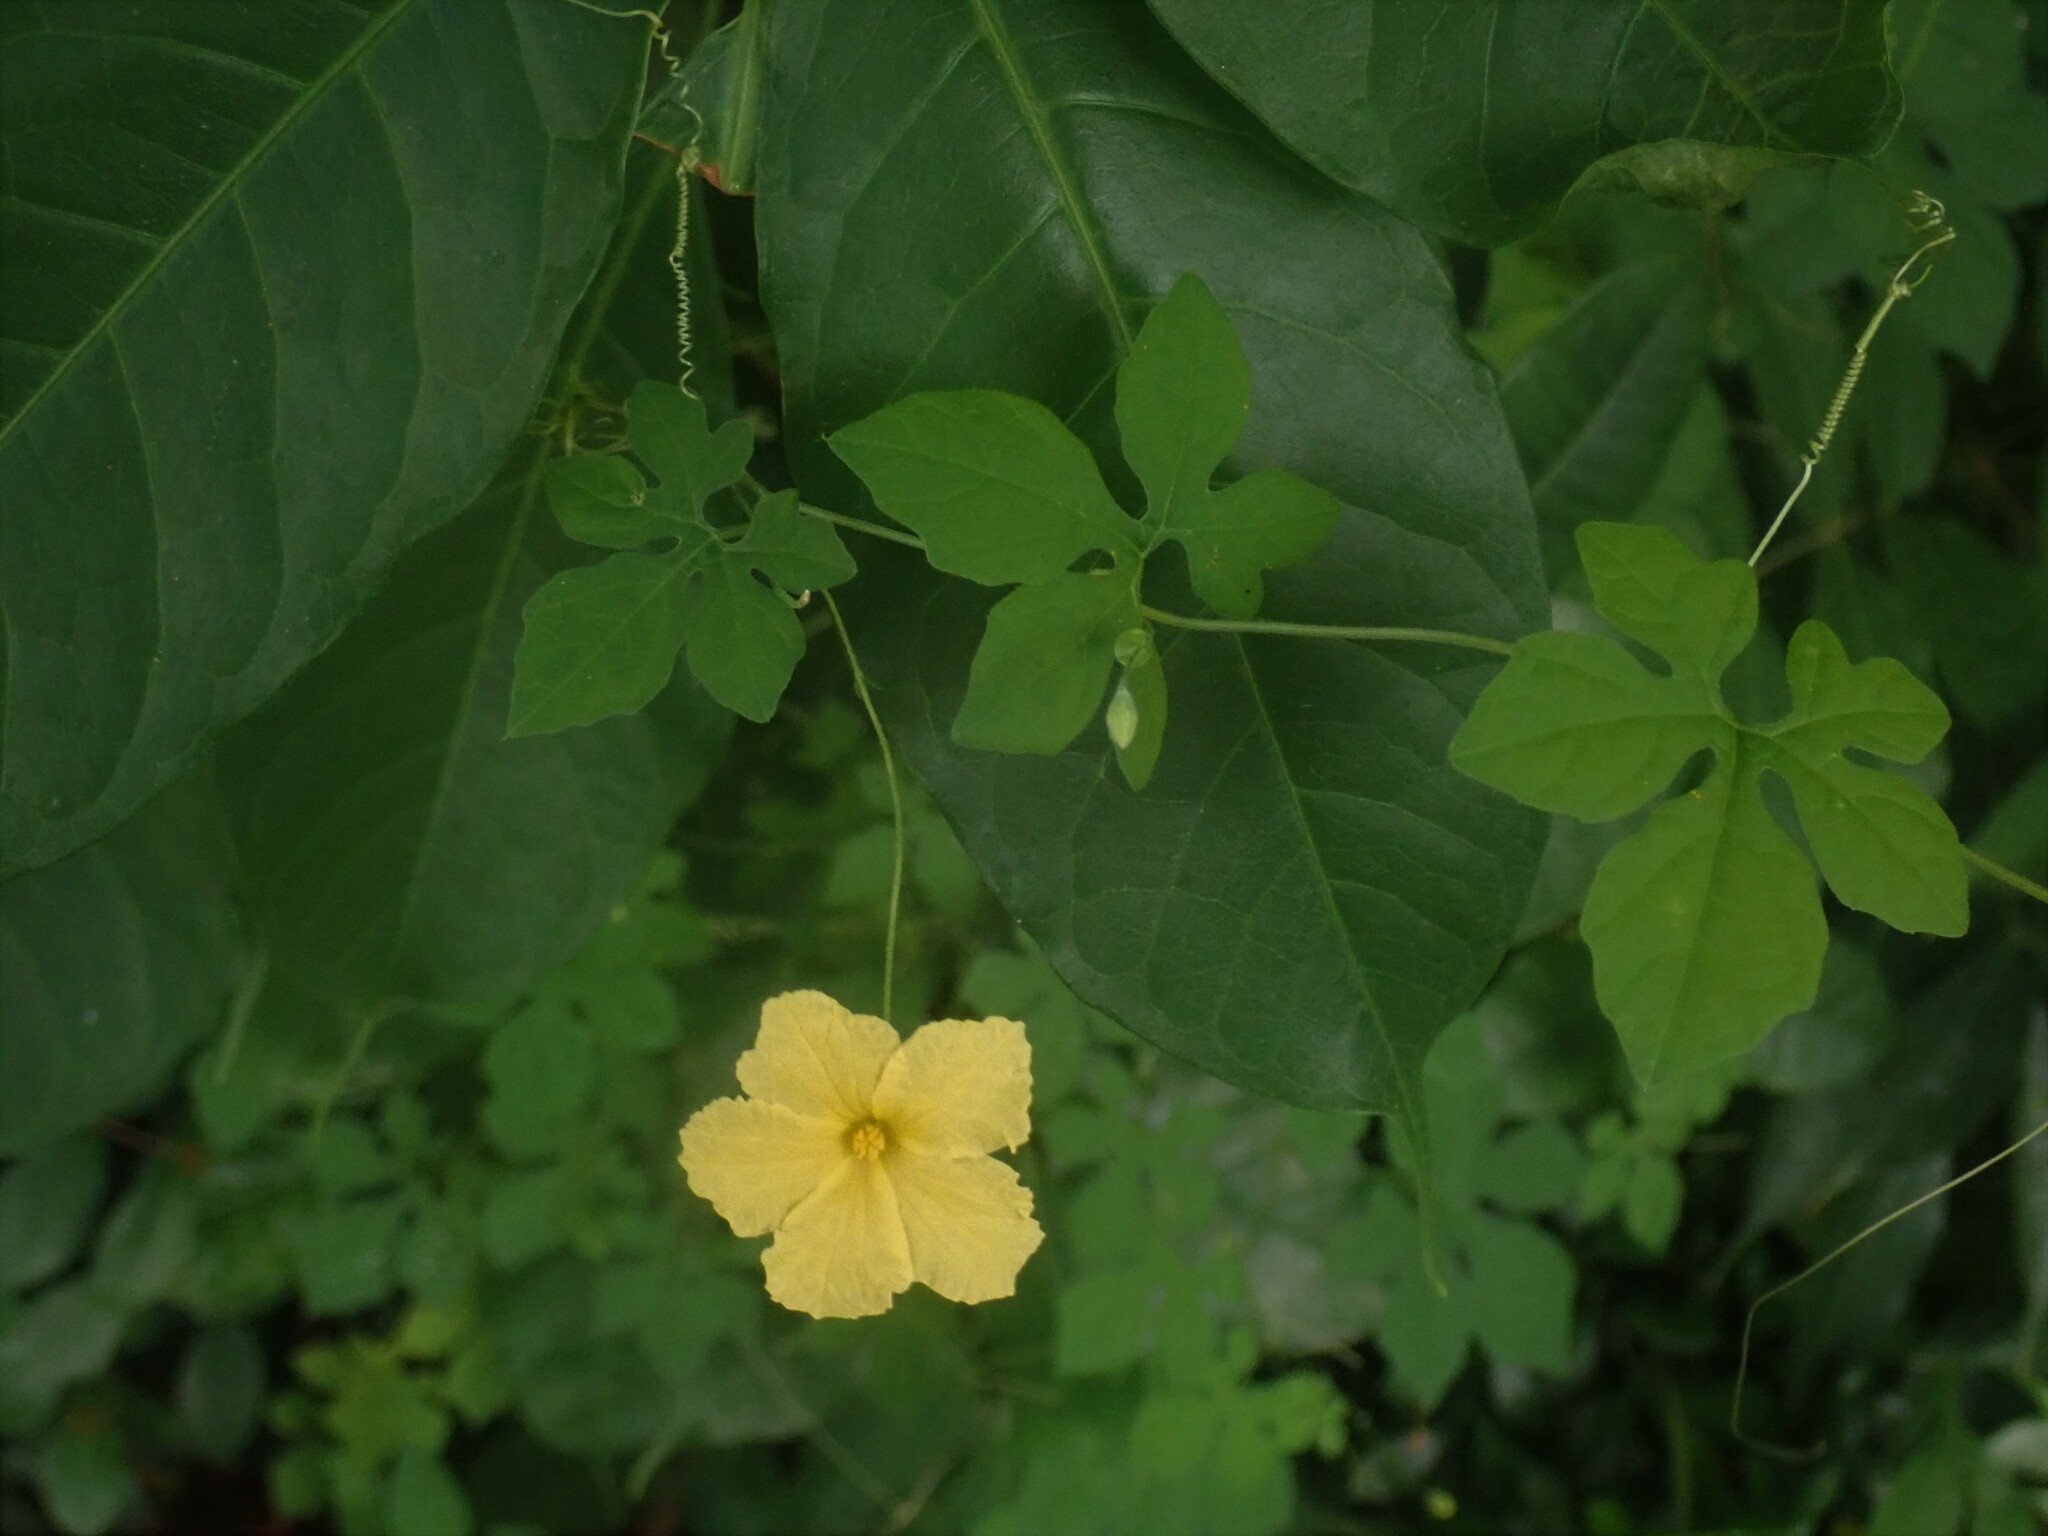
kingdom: Plantae
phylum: Tracheophyta
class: Magnoliopsida
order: Cucurbitales
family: Cucurbitaceae
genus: Momordica
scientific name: Momordica charantia
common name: Balsampear
